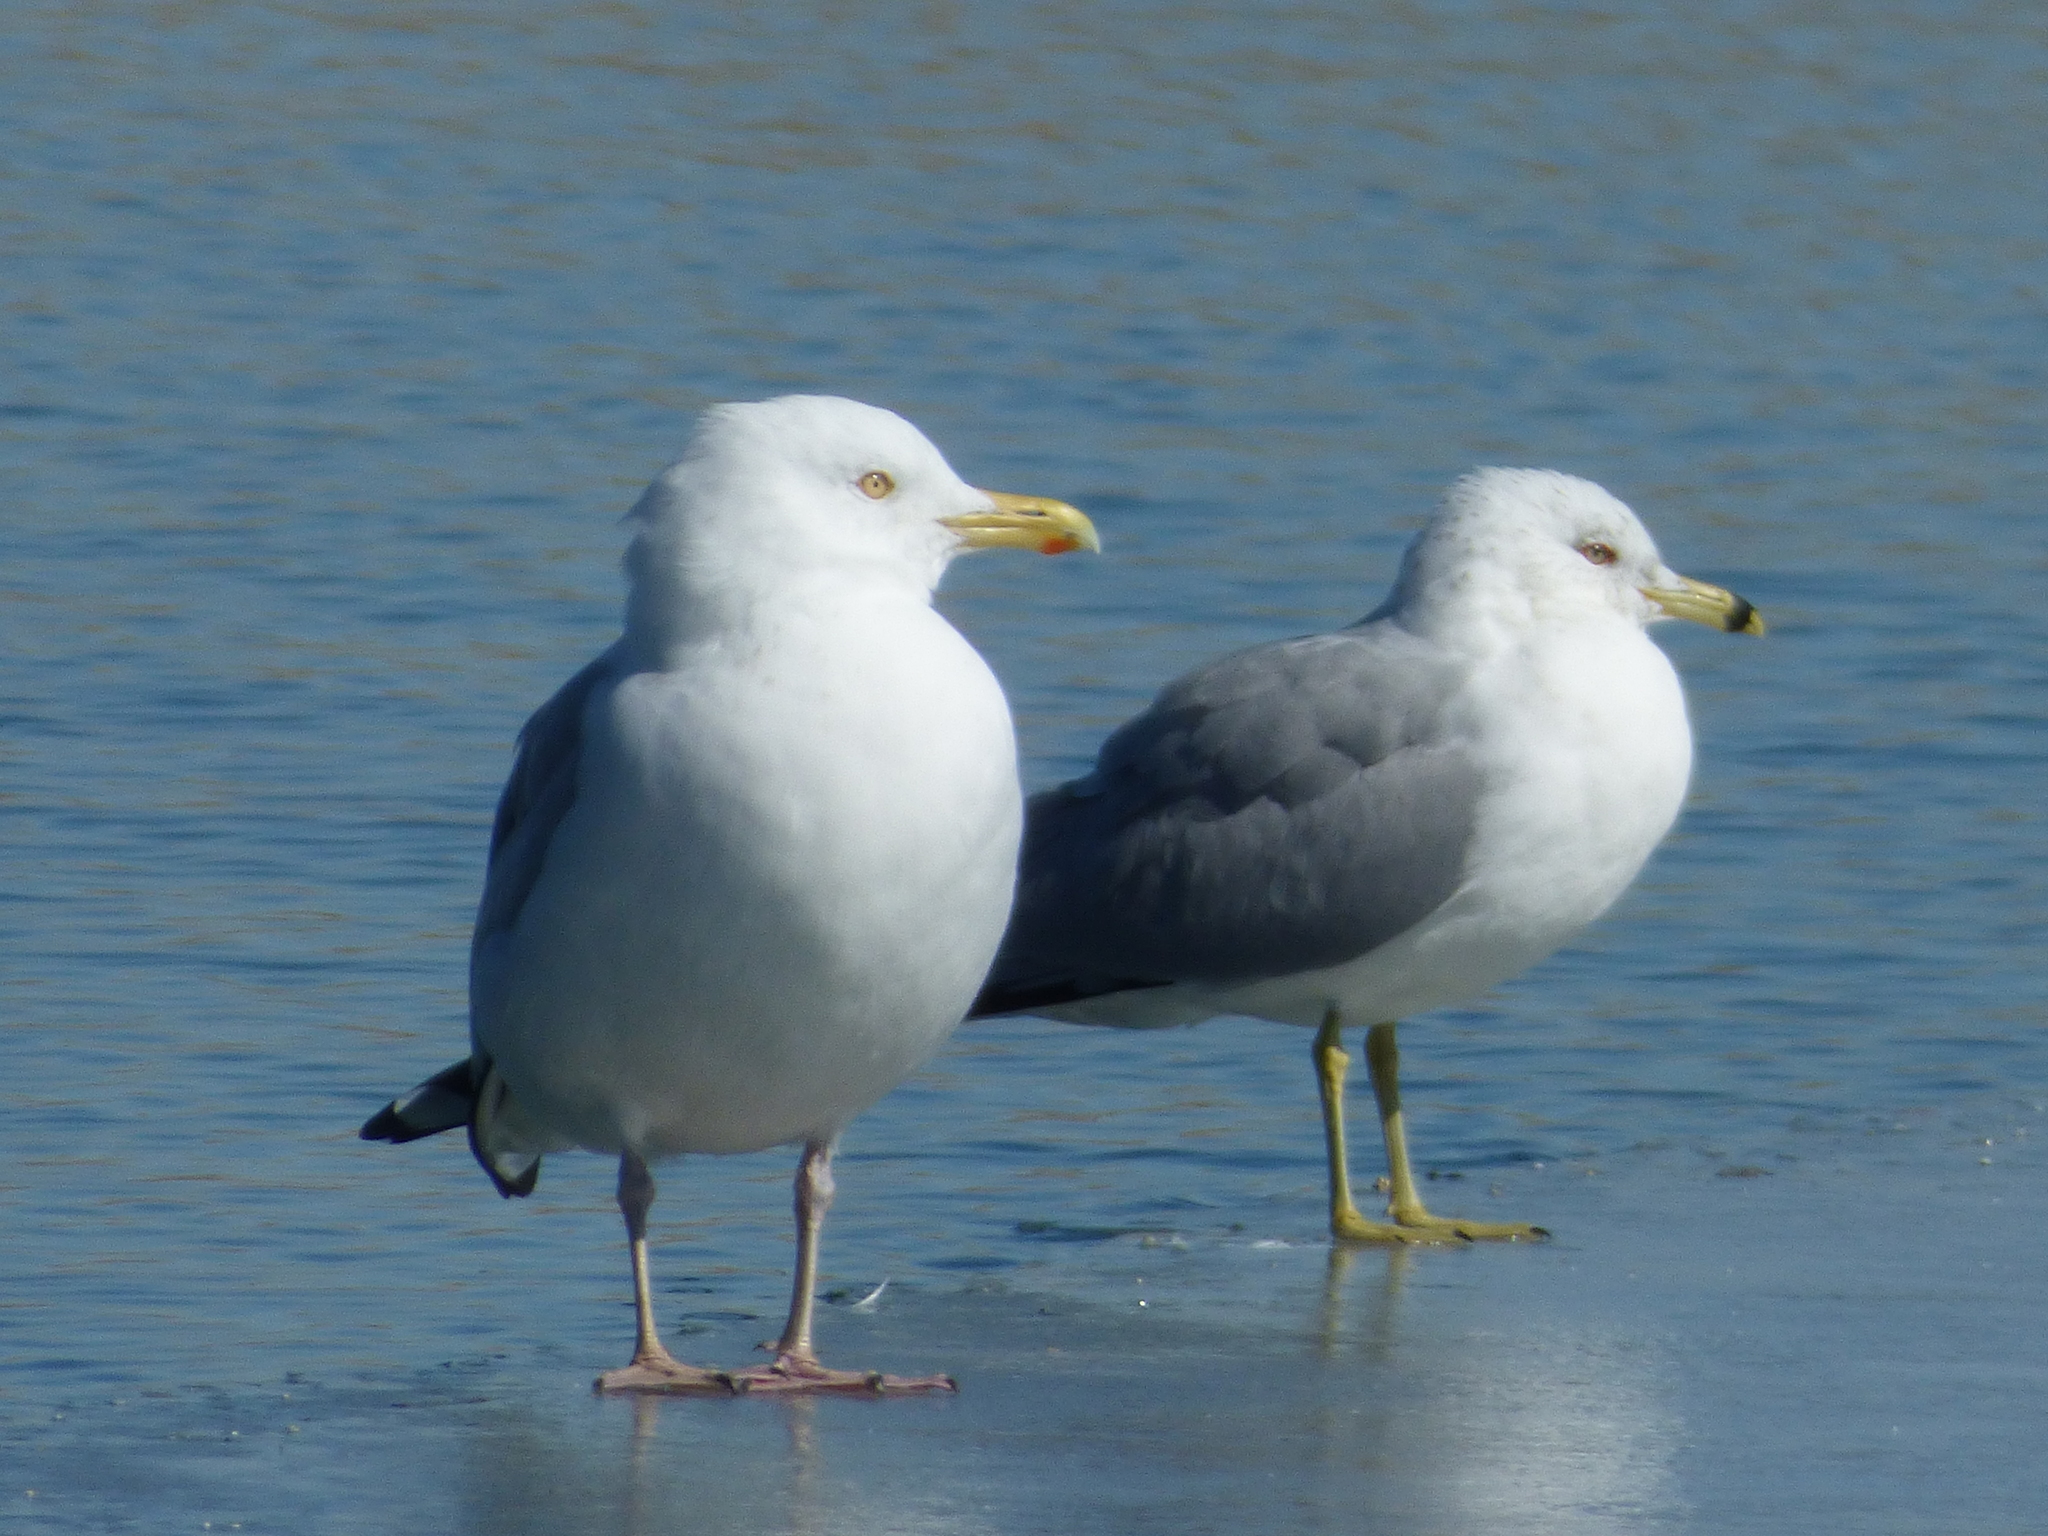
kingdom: Animalia
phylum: Chordata
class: Aves
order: Charadriiformes
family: Laridae
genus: Larus
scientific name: Larus delawarensis
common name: Ring-billed gull
